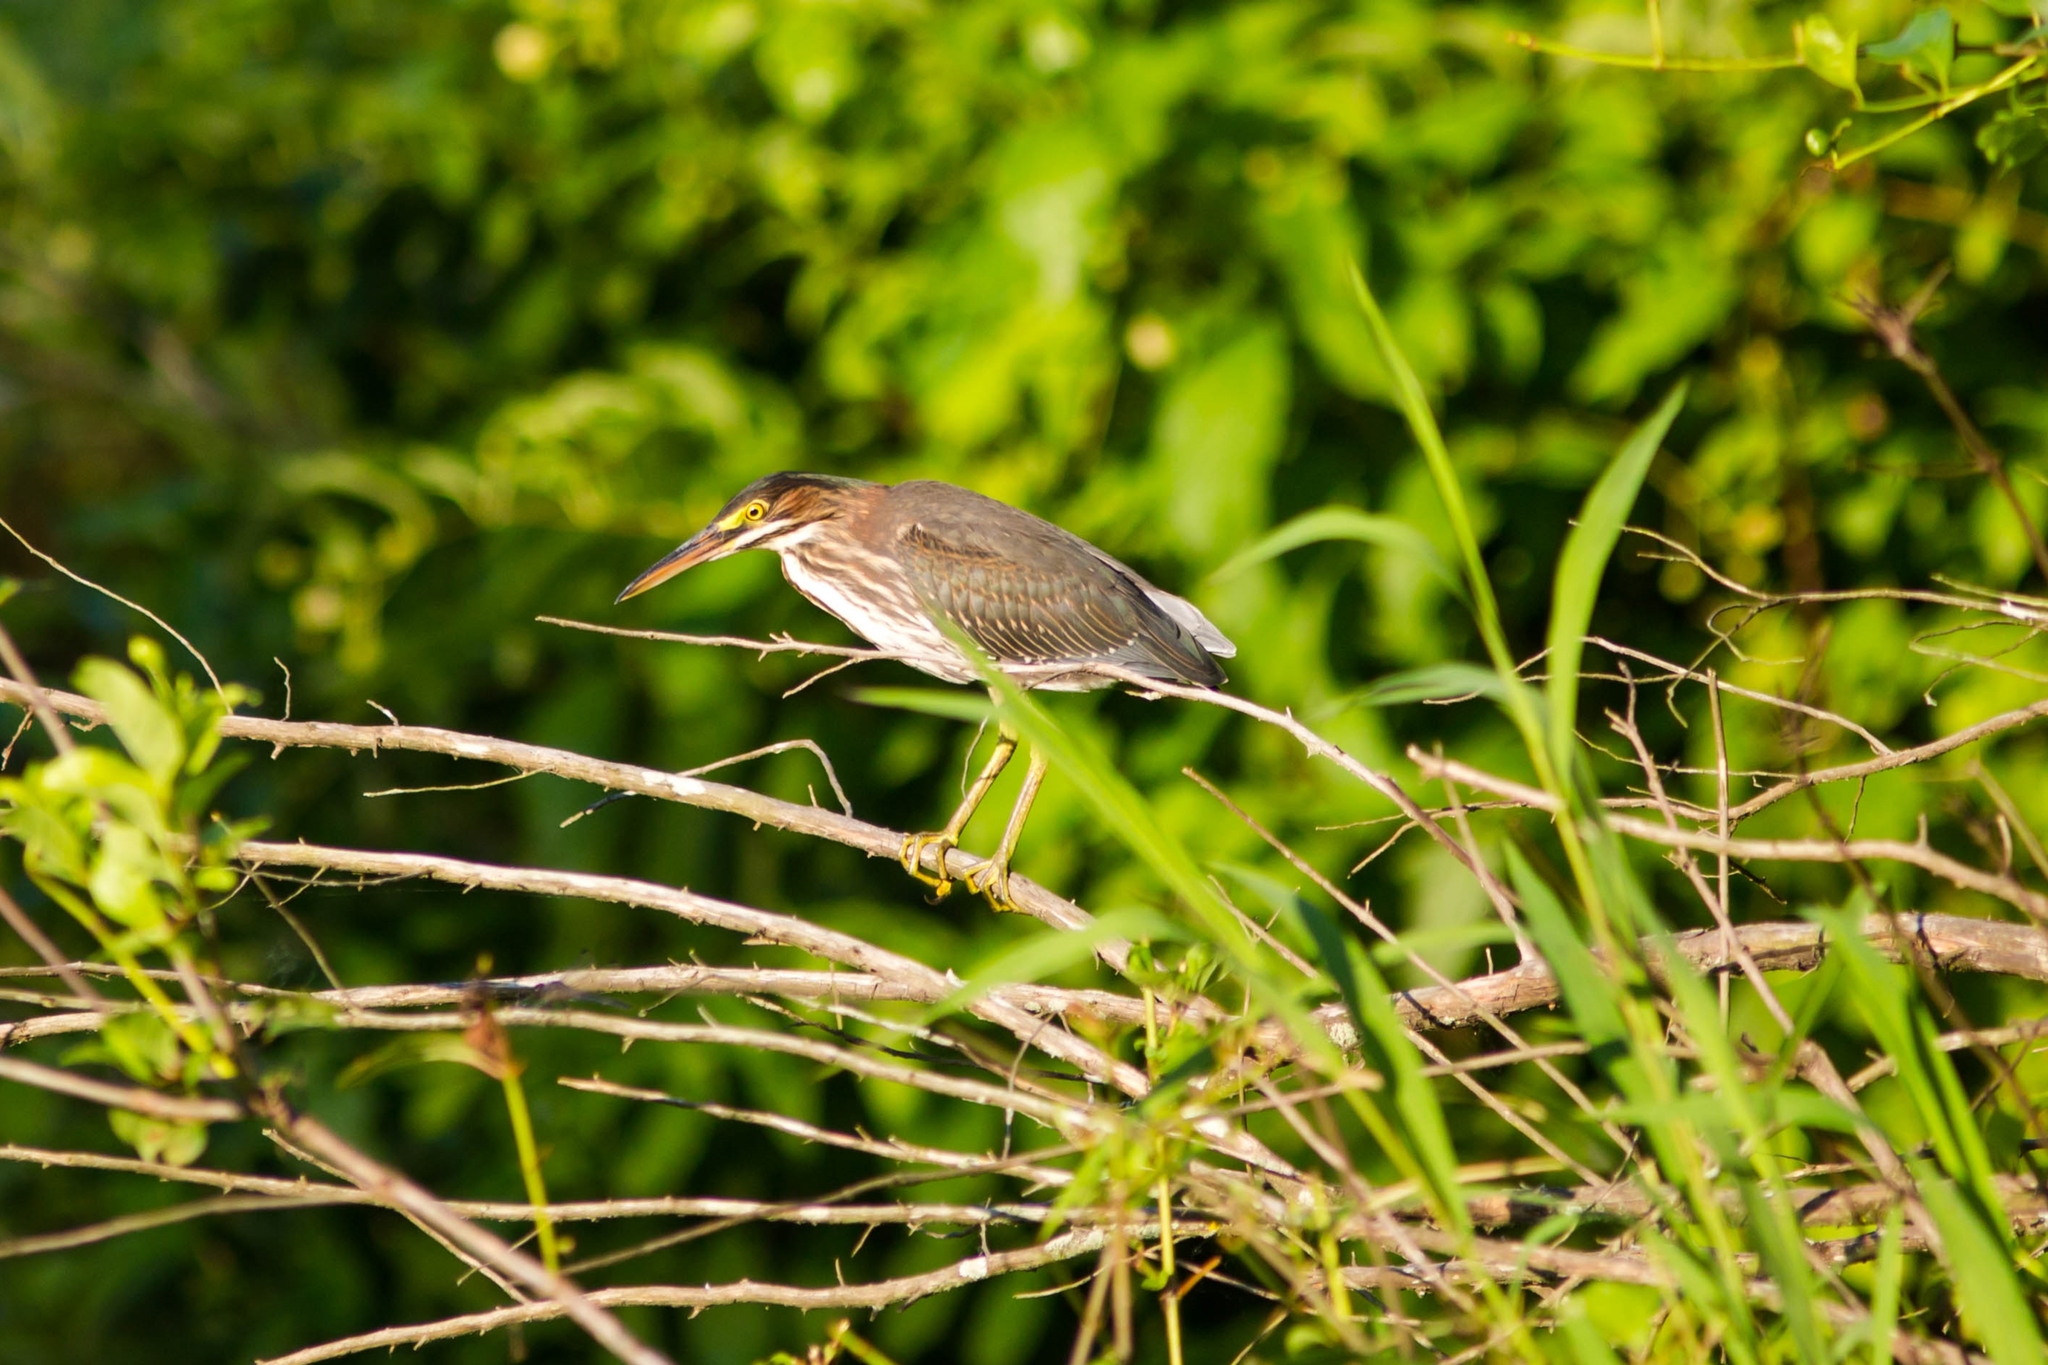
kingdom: Animalia
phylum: Chordata
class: Aves
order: Pelecaniformes
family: Ardeidae
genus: Butorides
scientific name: Butorides virescens
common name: Green heron
